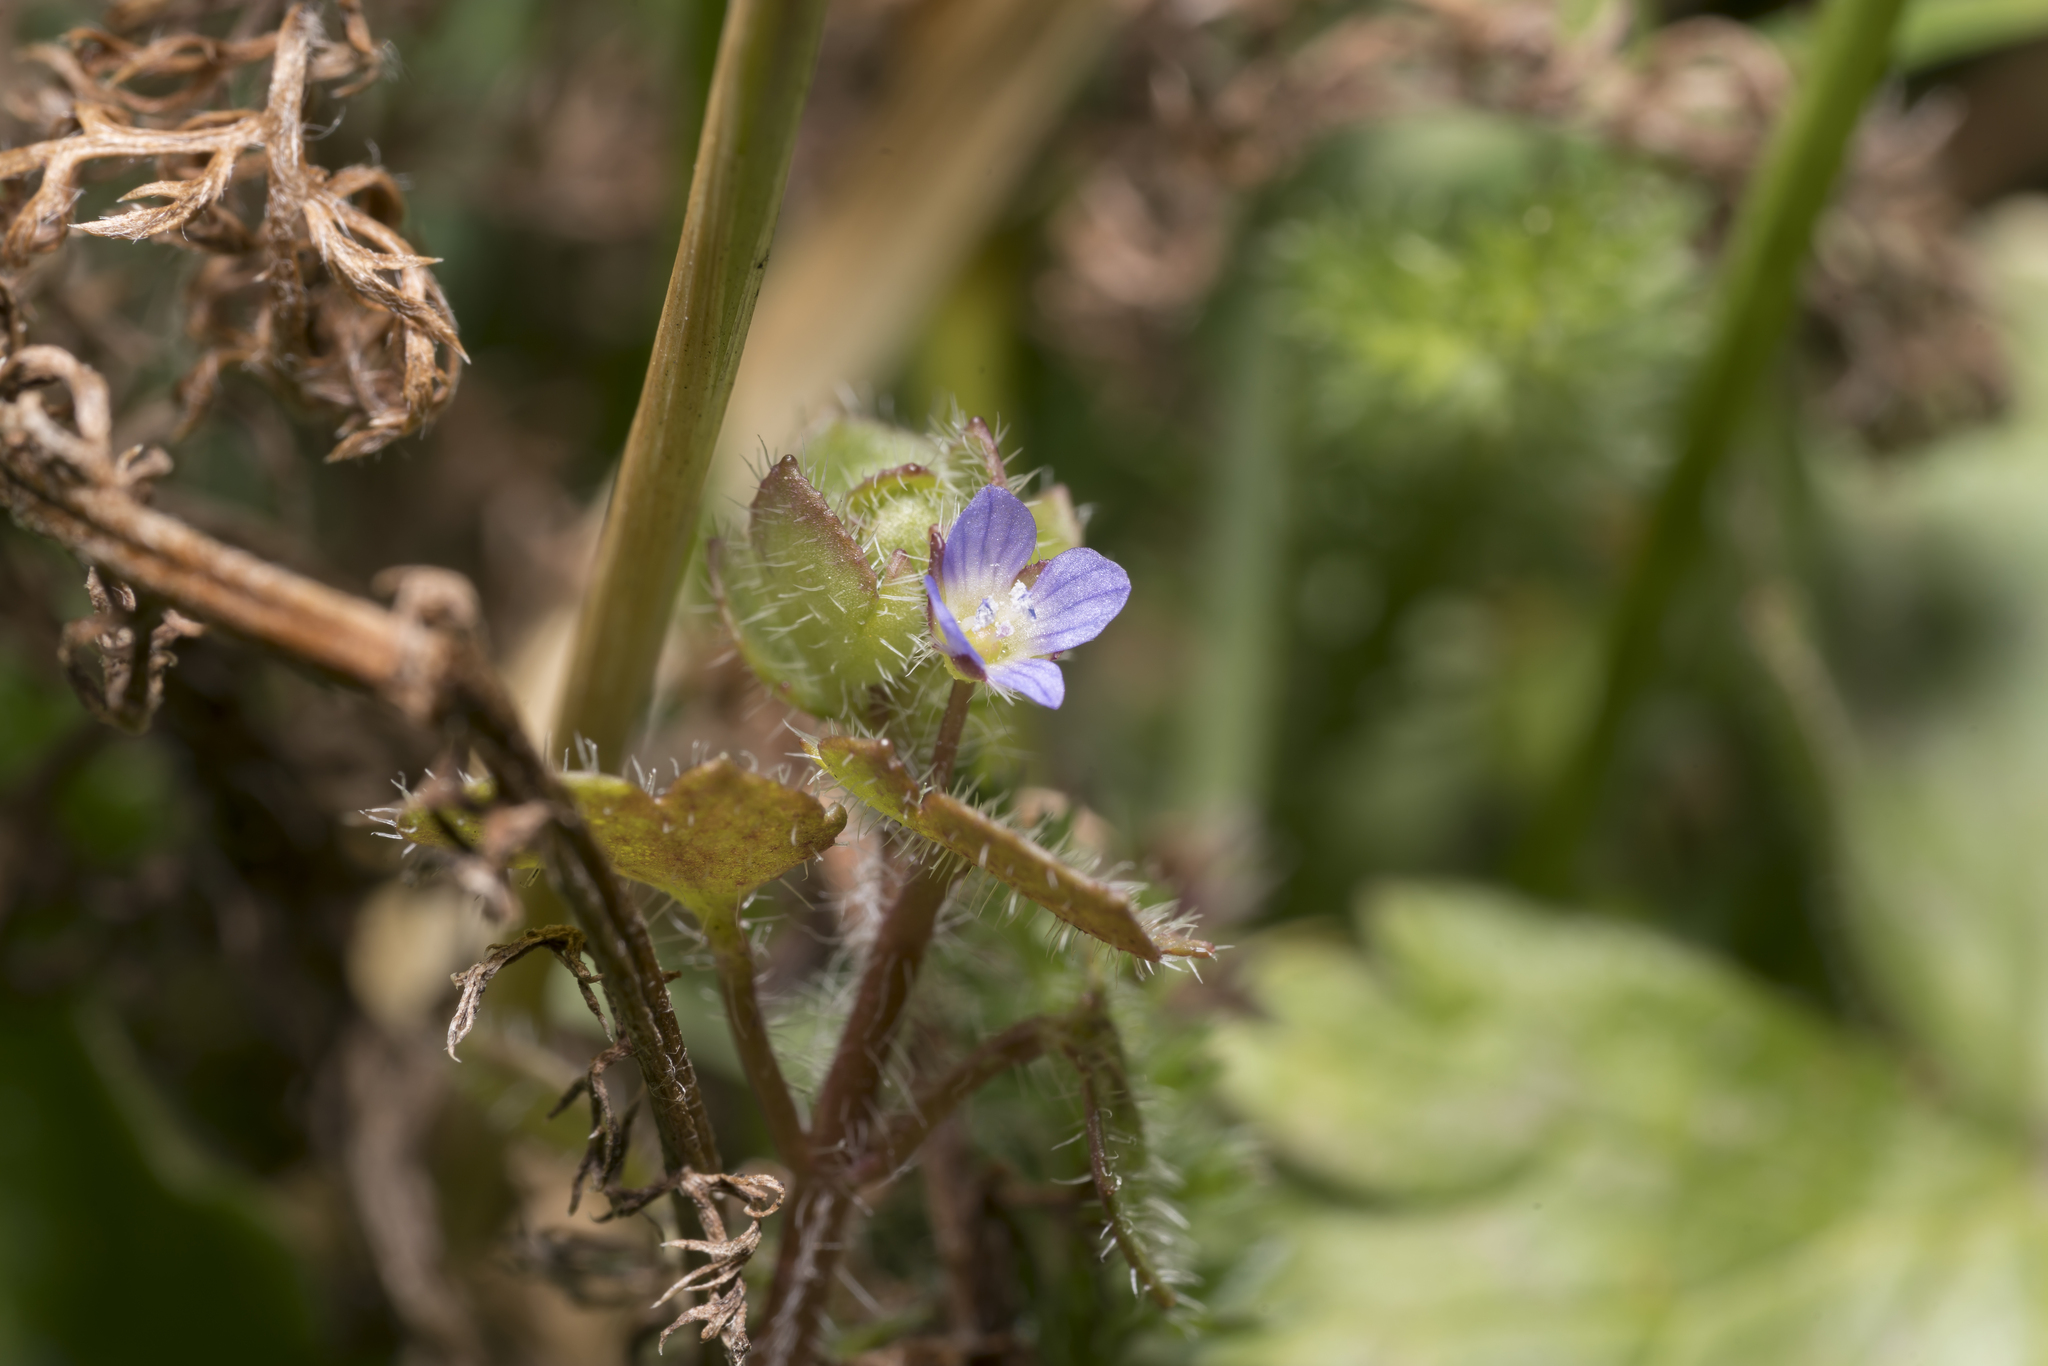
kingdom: Plantae
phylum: Tracheophyta
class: Magnoliopsida
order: Lamiales
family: Plantaginaceae
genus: Veronica
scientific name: Veronica hederifolia
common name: Ivy-leaved speedwell
